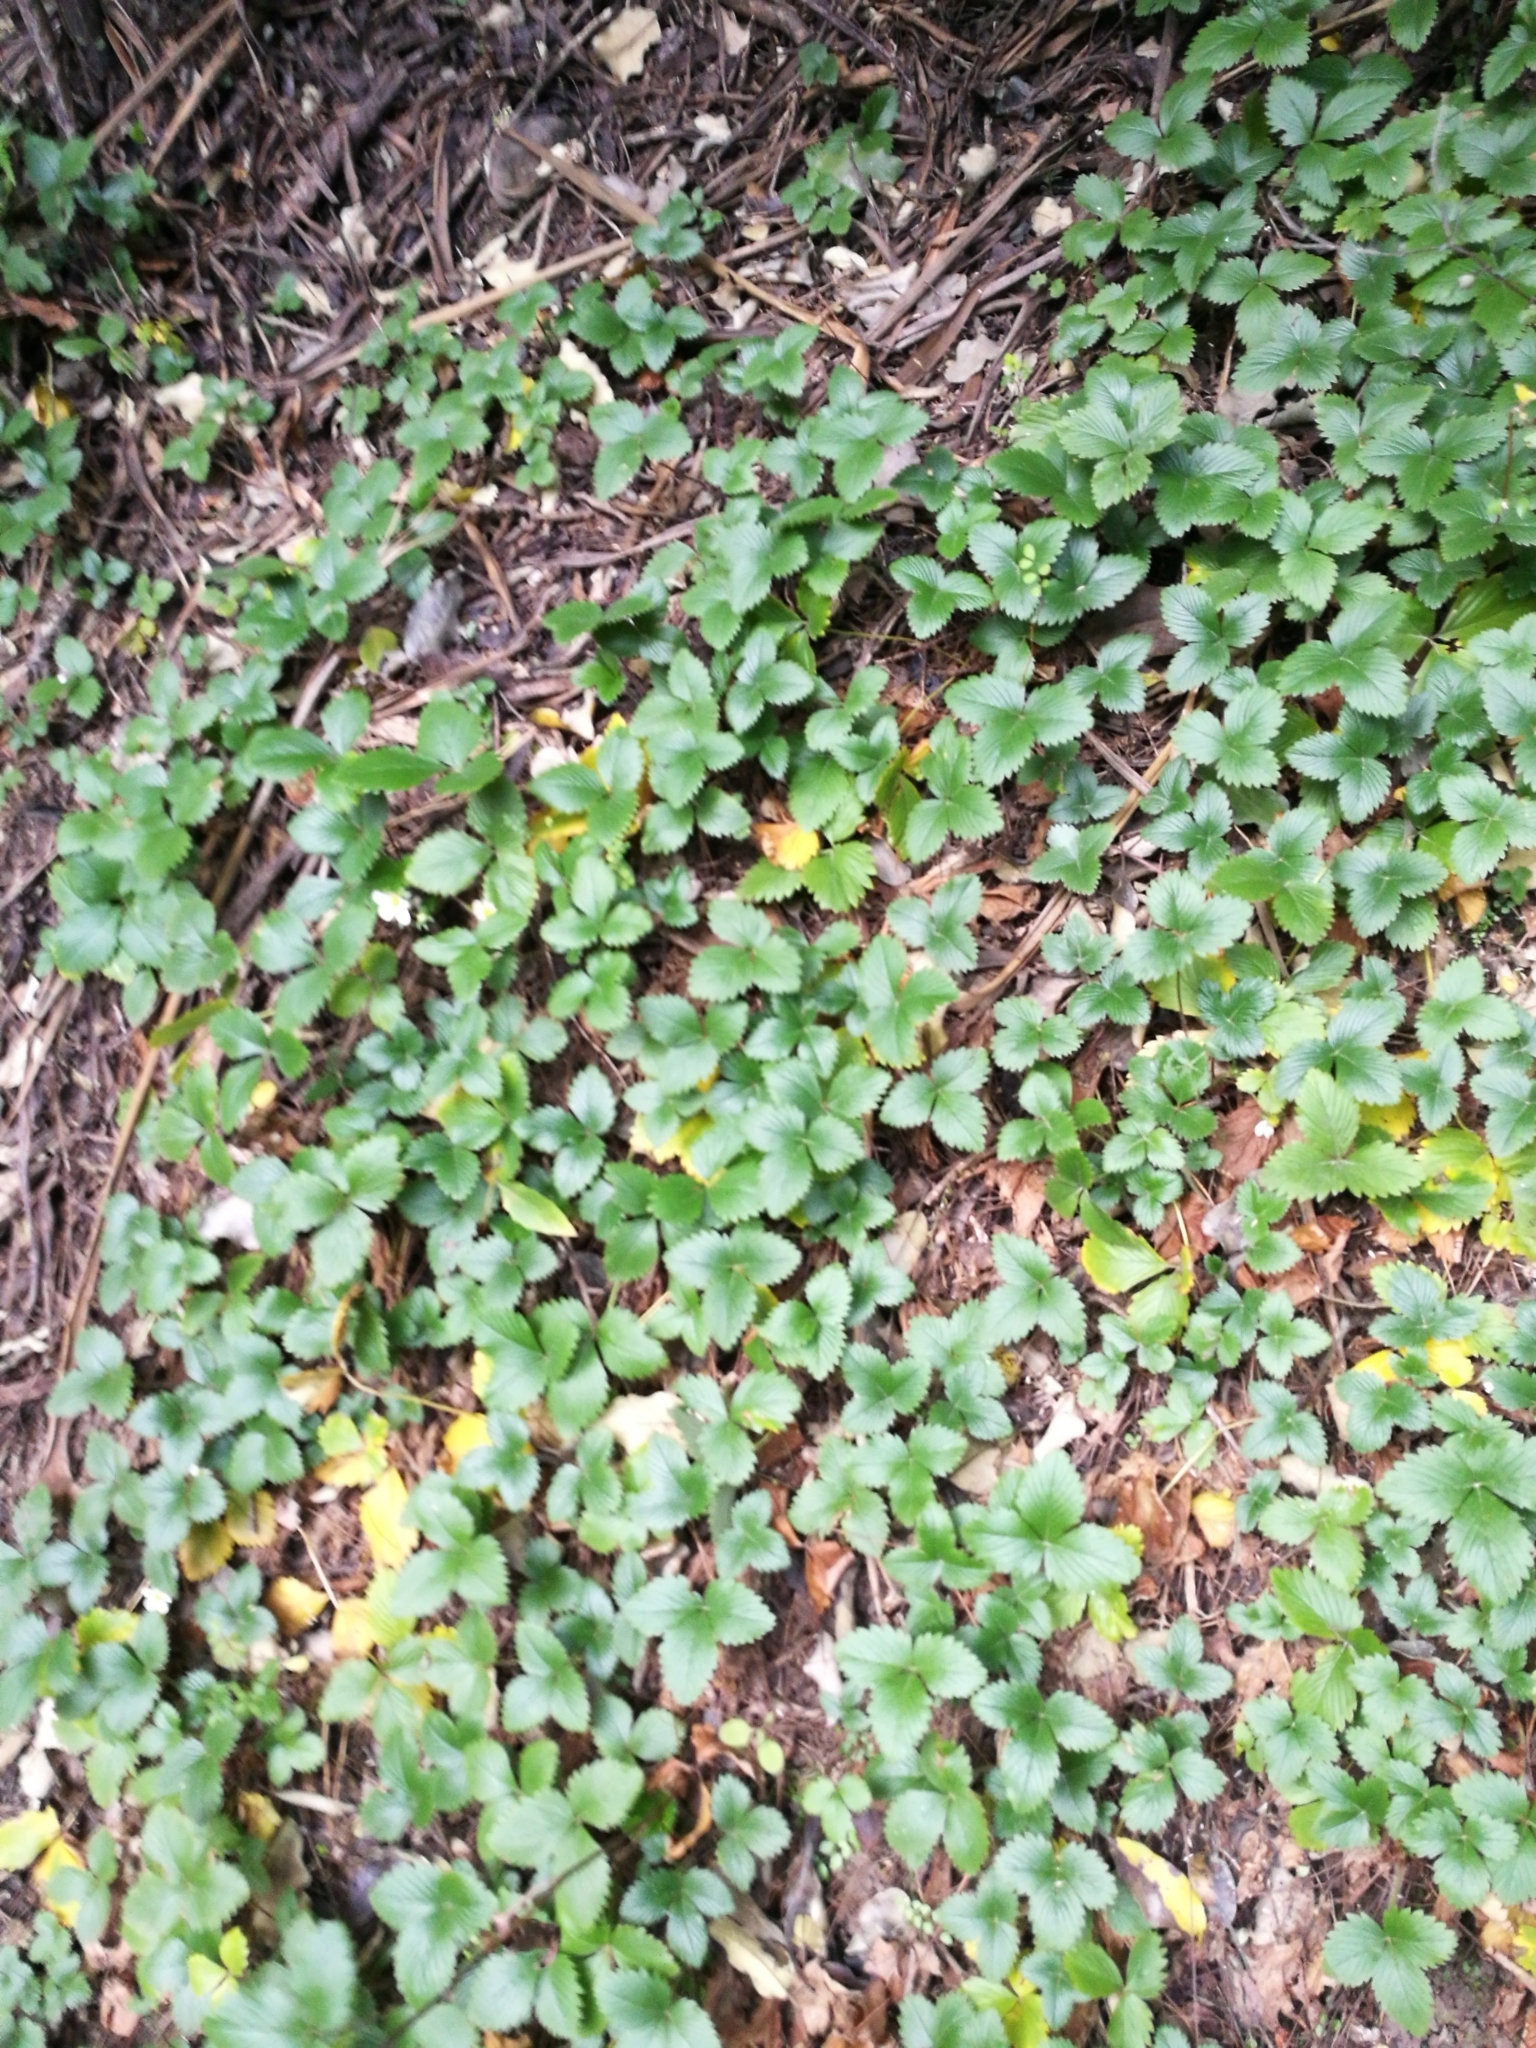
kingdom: Plantae
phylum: Tracheophyta
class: Magnoliopsida
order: Rosales
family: Rosaceae
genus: Fragaria
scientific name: Fragaria vesca
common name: Wild strawberry
